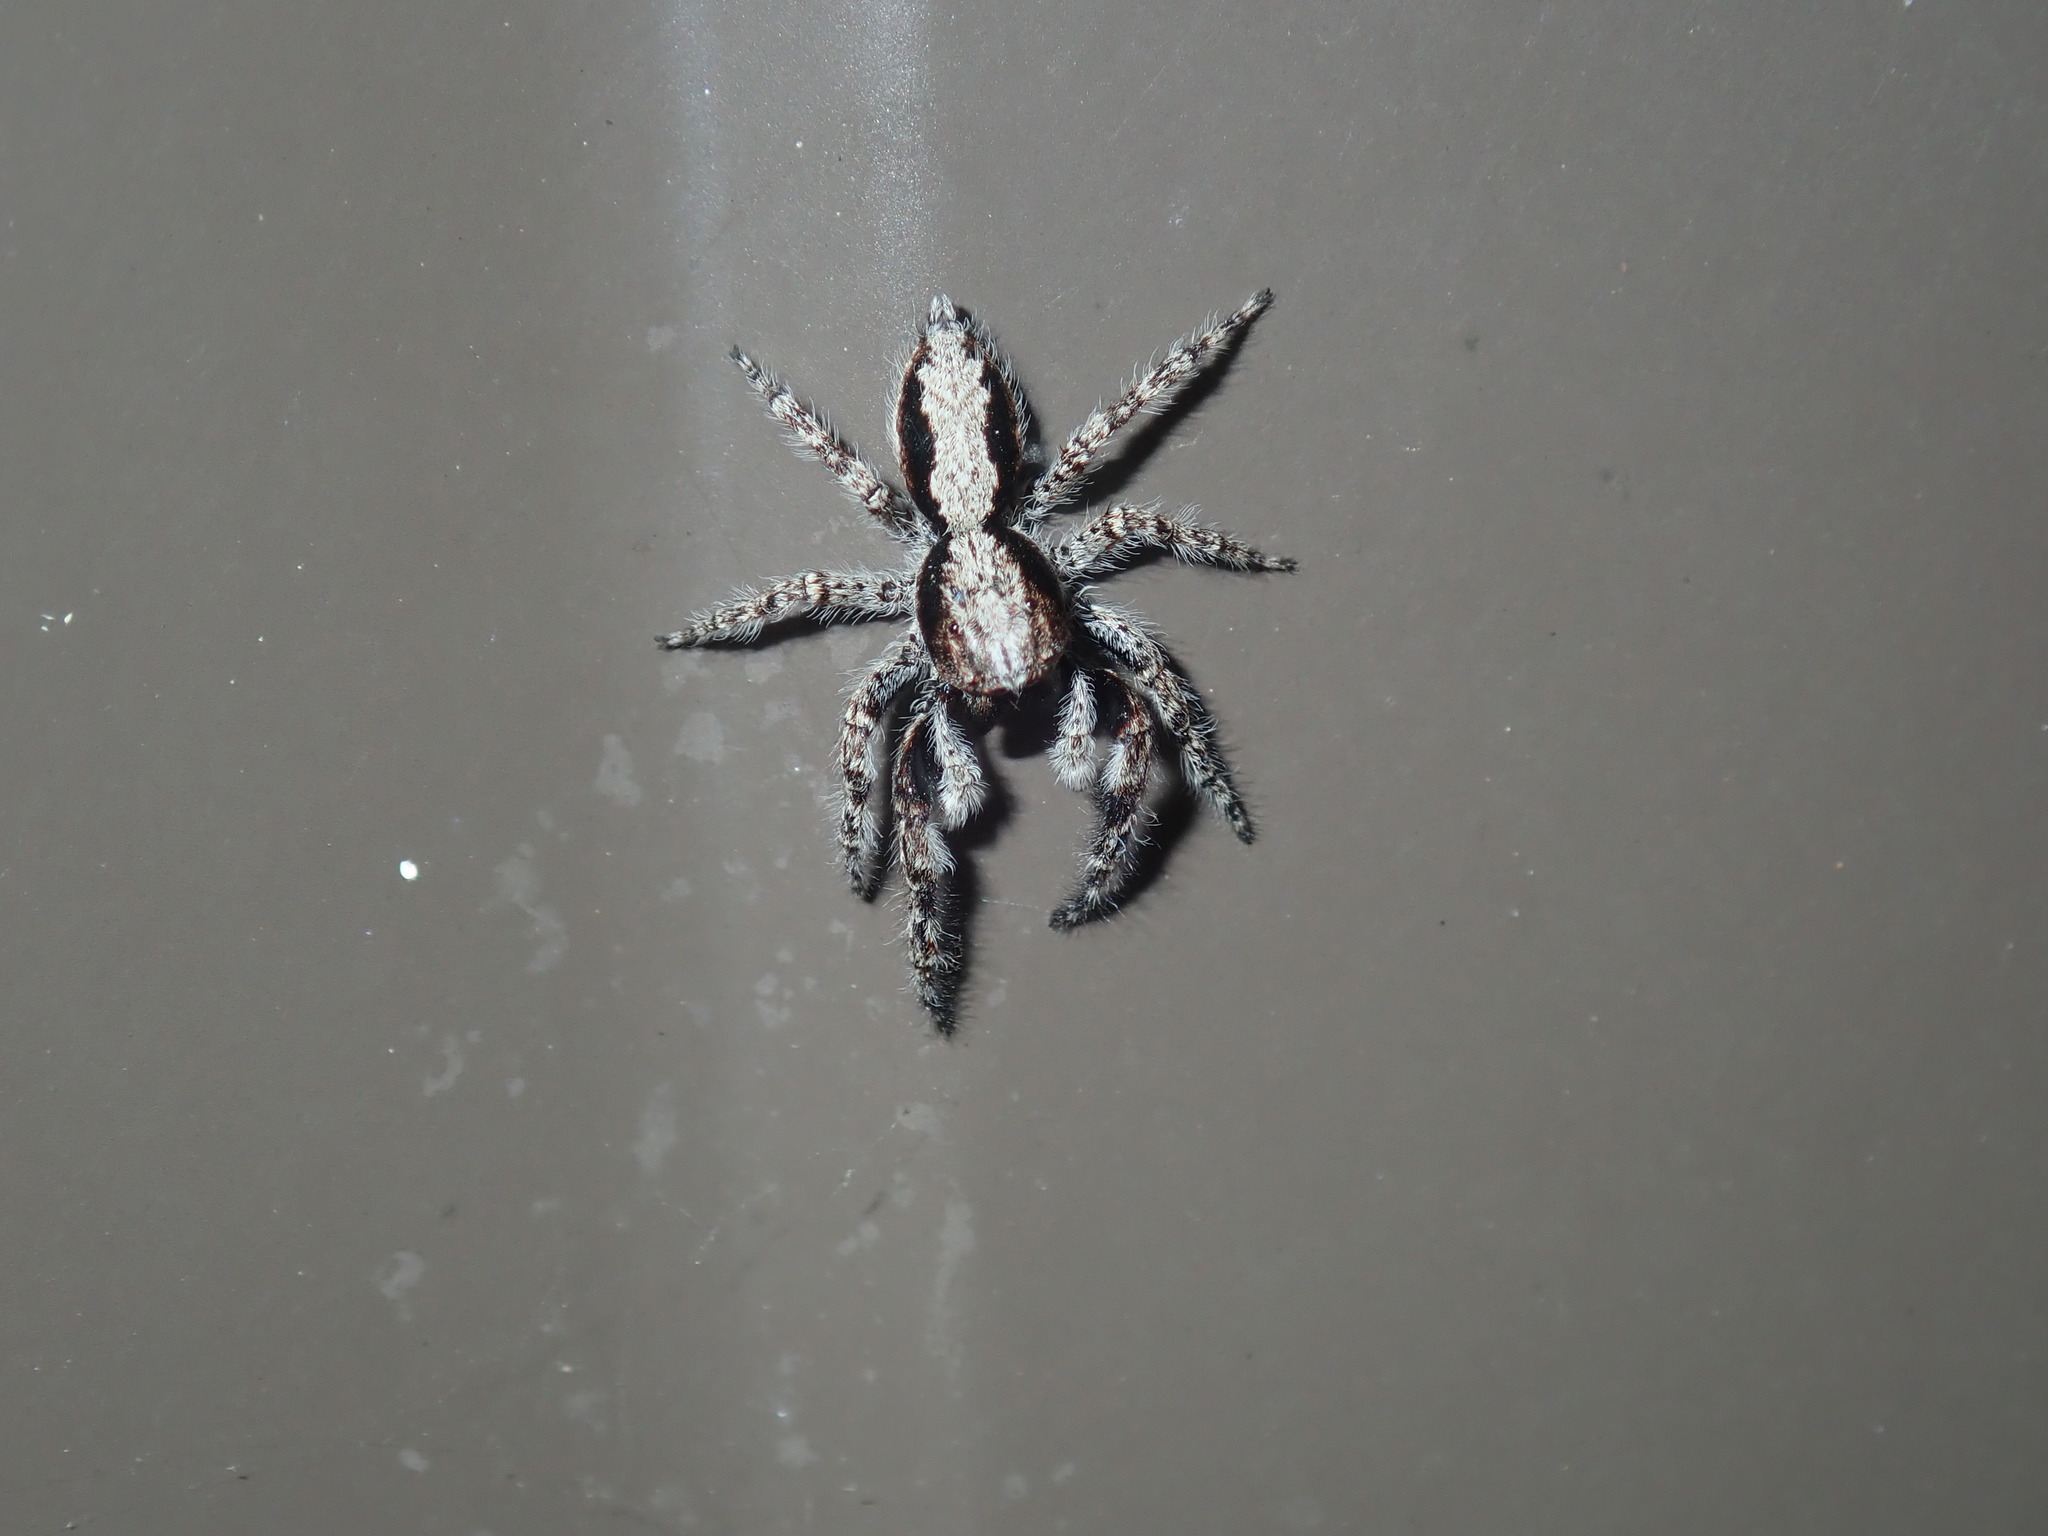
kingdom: Animalia
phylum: Arthropoda
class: Arachnida
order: Araneae
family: Salticidae
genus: Clynotis
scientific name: Clynotis severus
